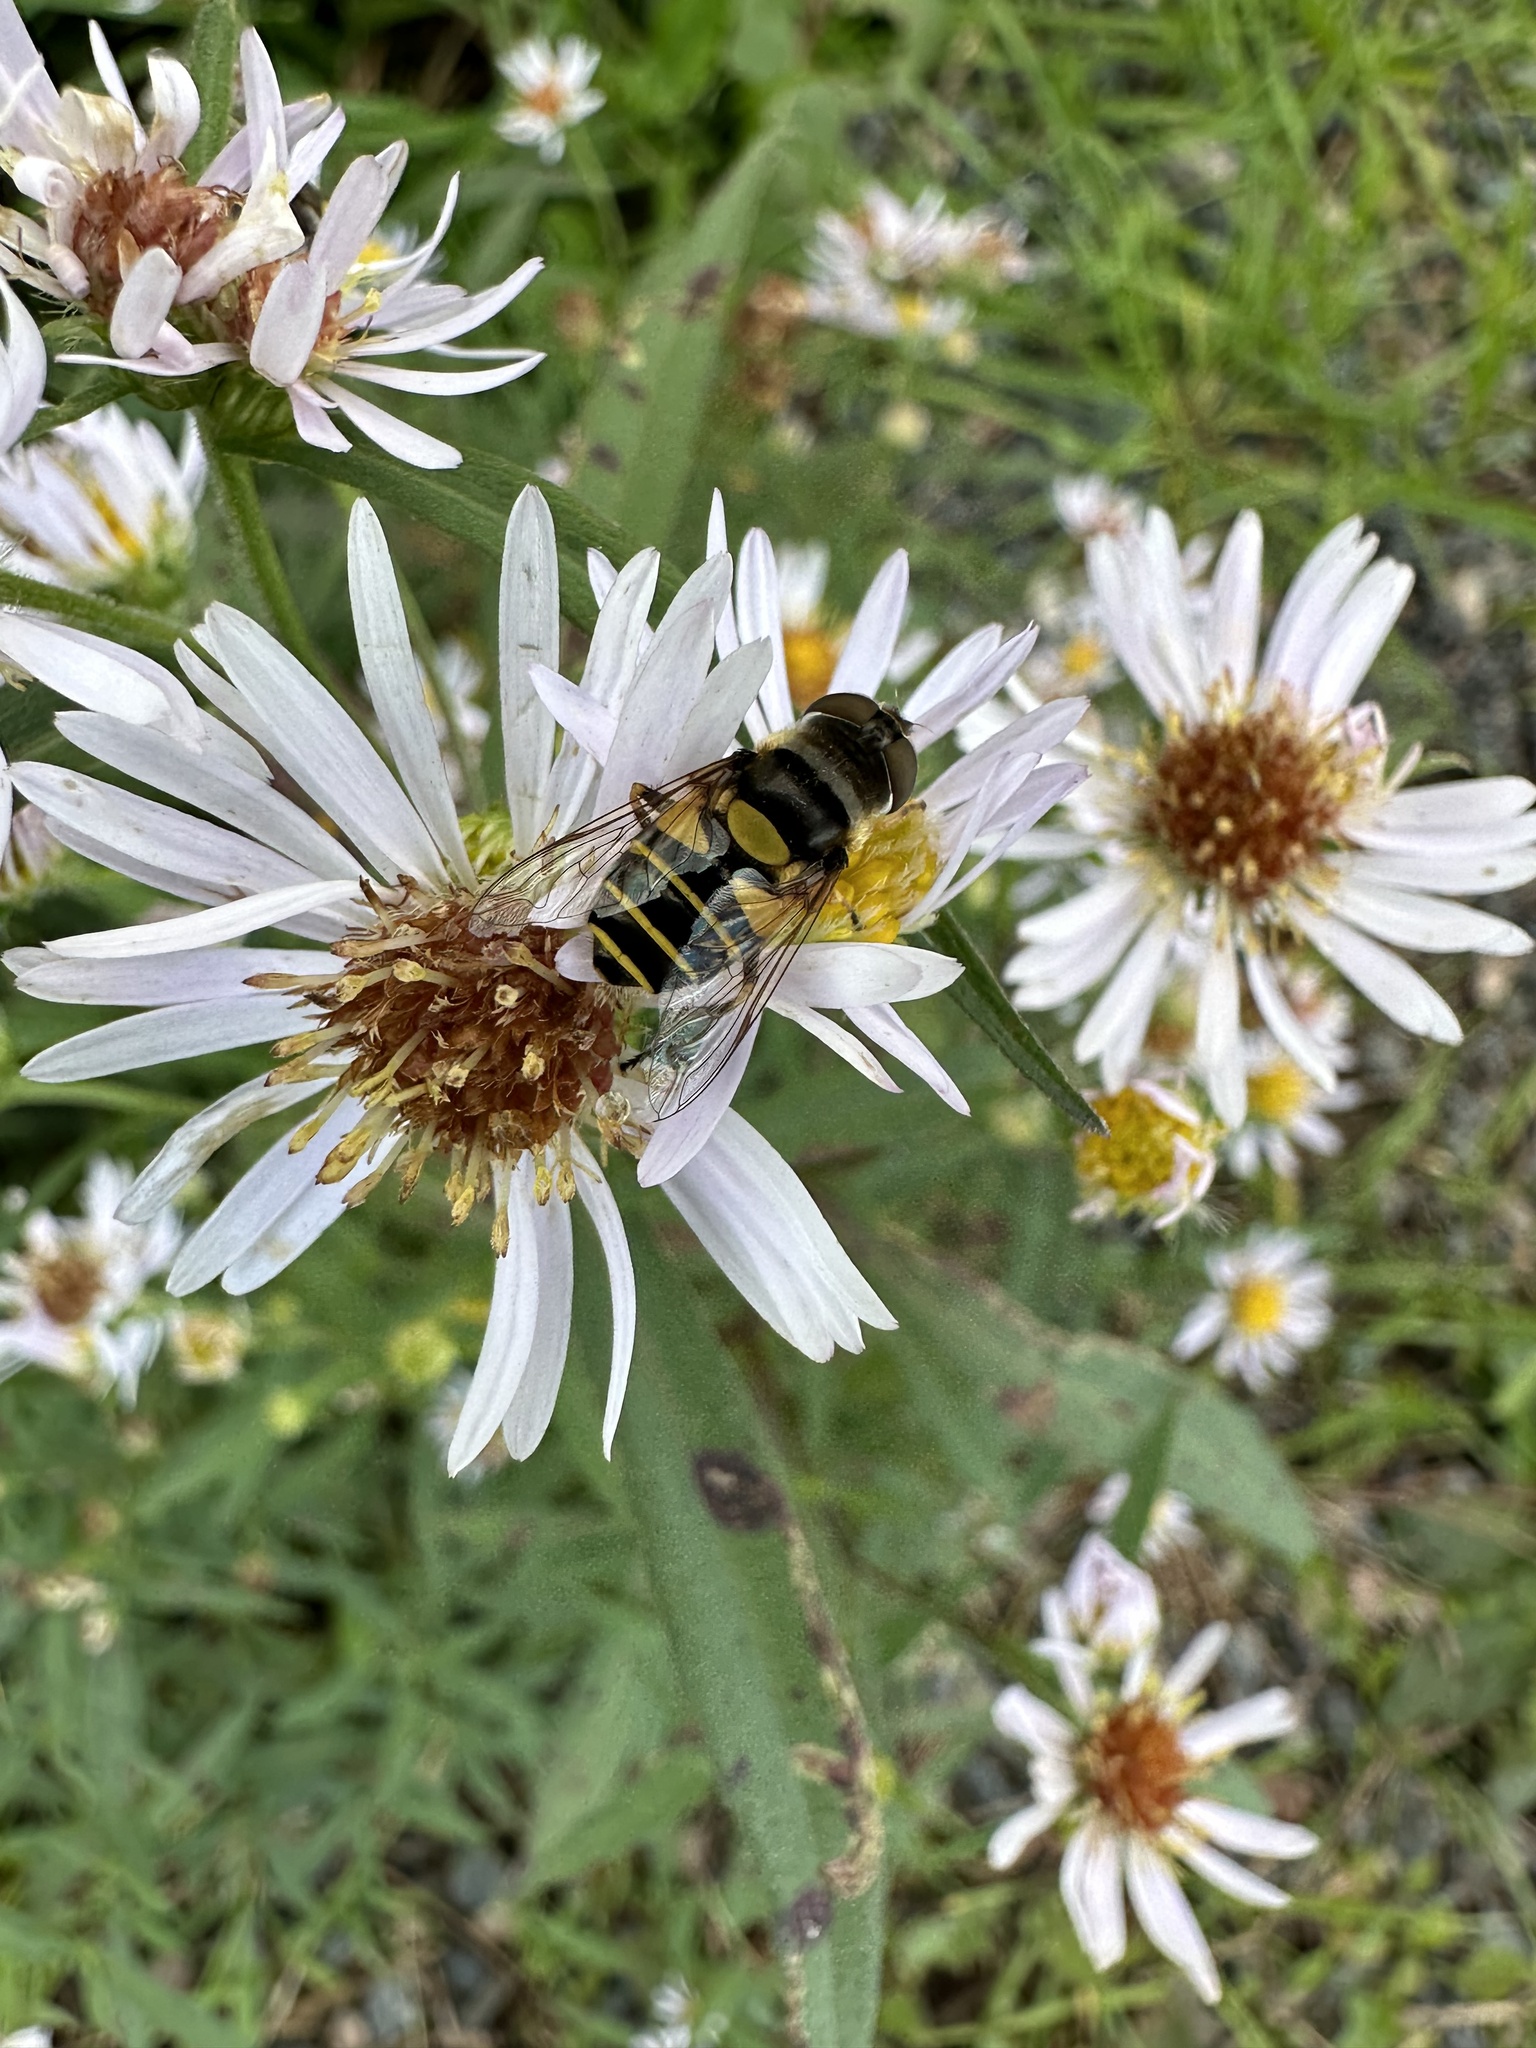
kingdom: Animalia
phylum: Arthropoda
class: Insecta
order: Diptera
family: Syrphidae
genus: Eristalis
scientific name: Eristalis transversa
